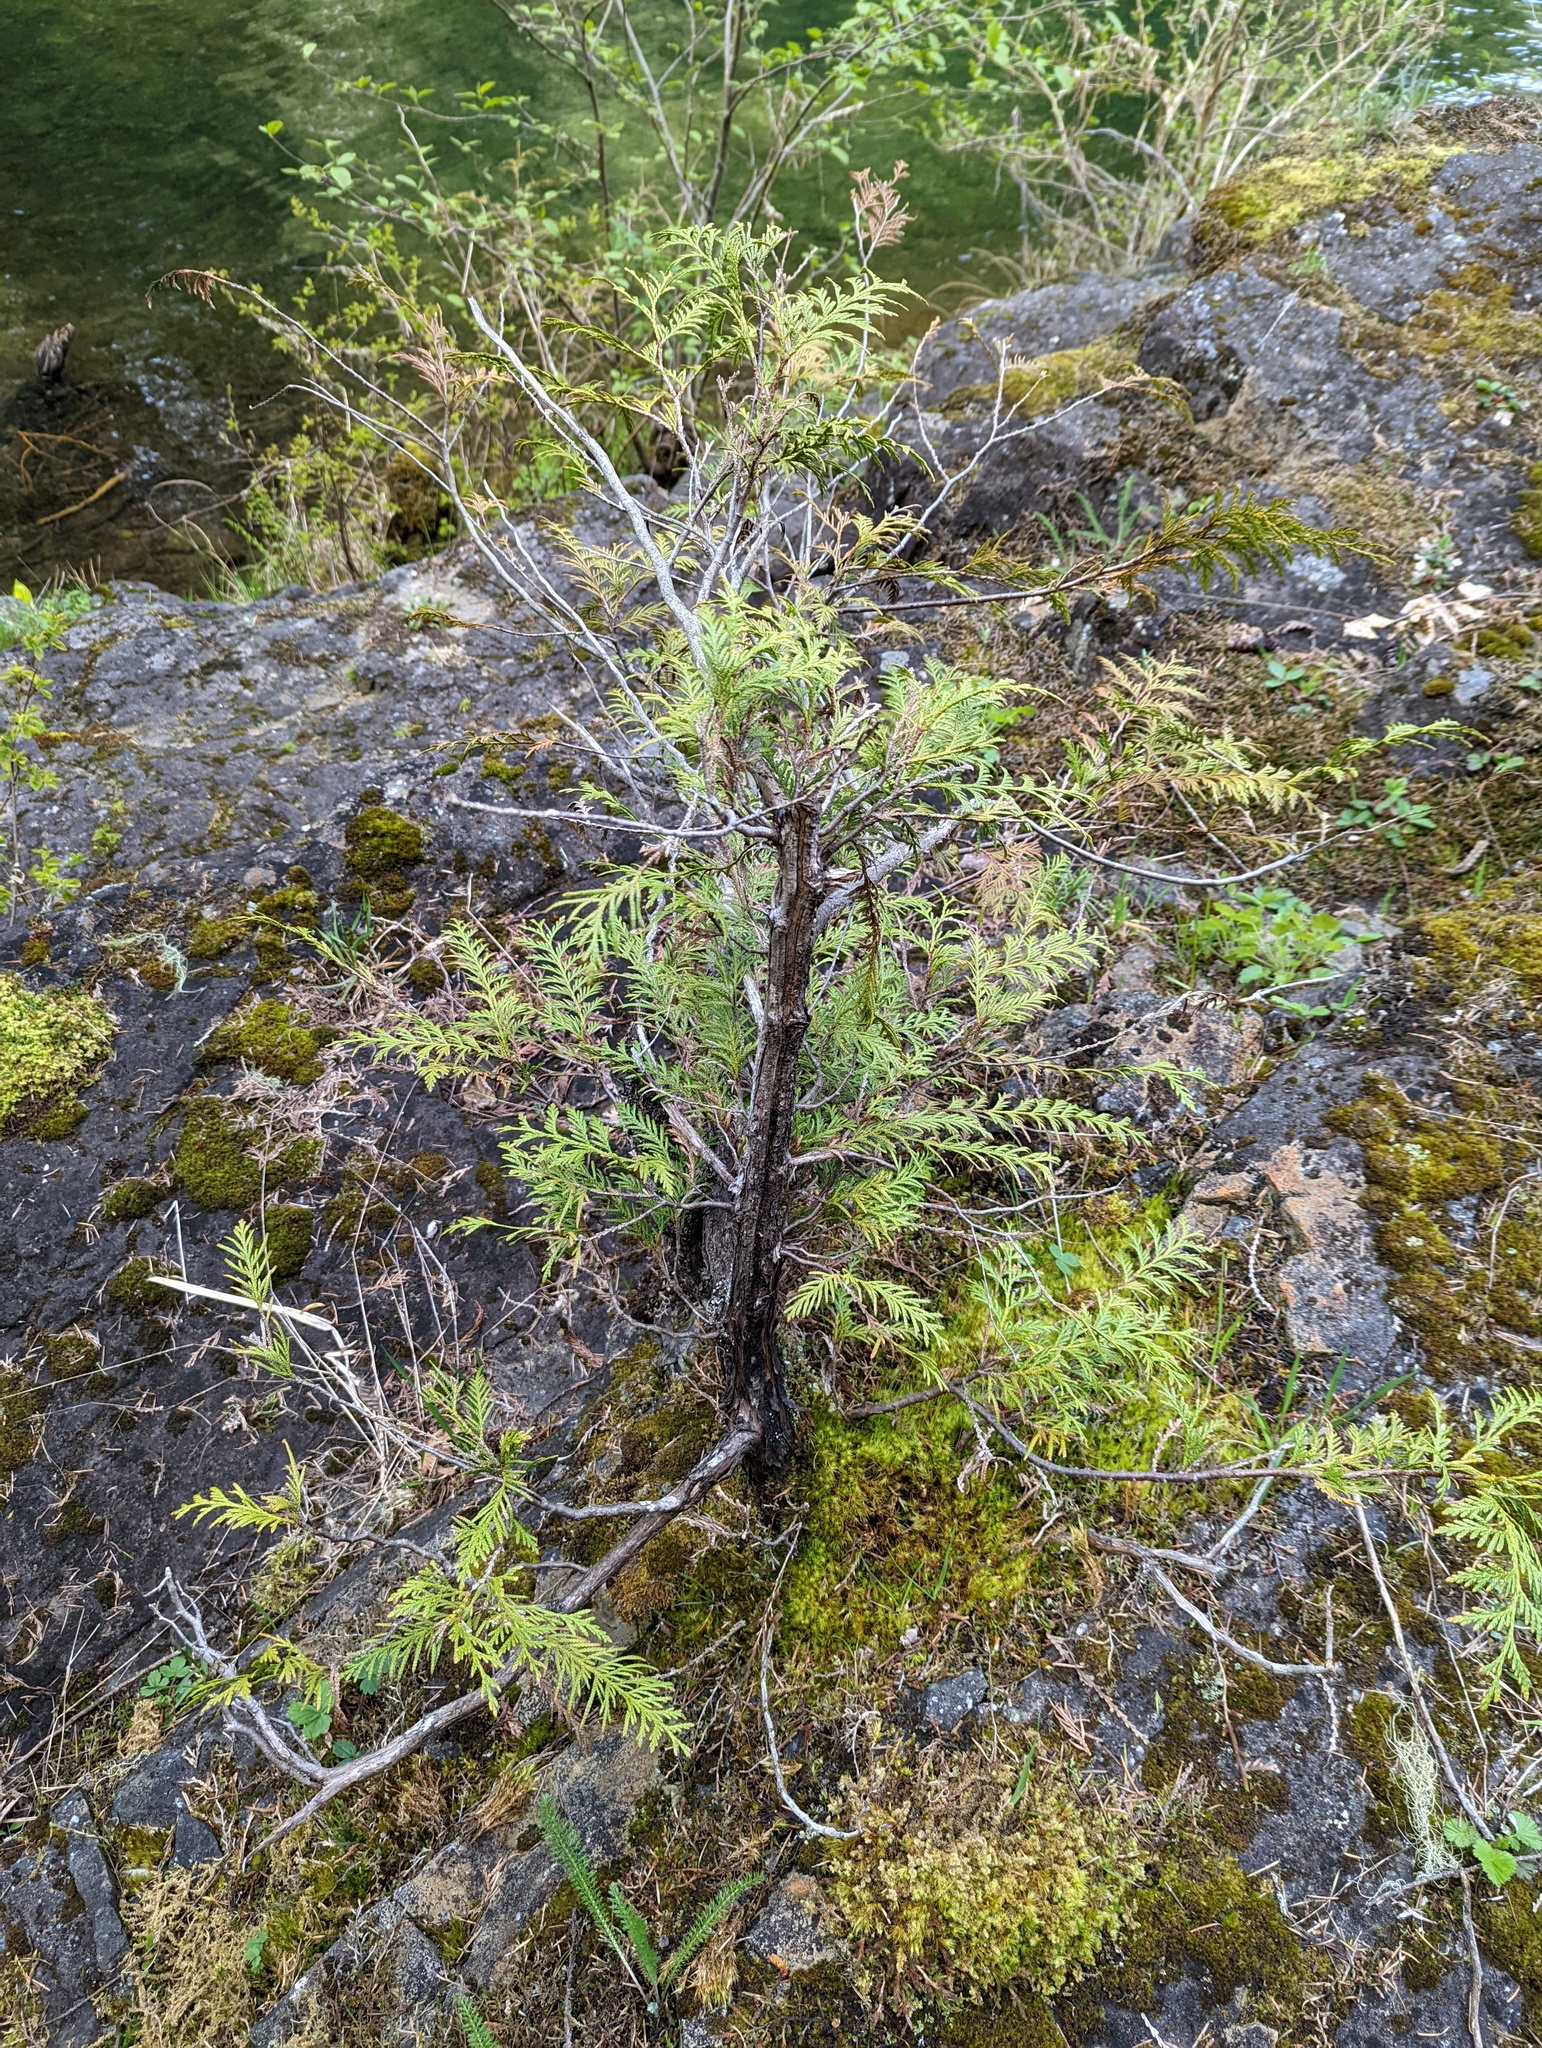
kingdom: Plantae
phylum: Tracheophyta
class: Pinopsida
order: Pinales
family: Cupressaceae
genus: Thuja
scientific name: Thuja plicata
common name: Western red-cedar
